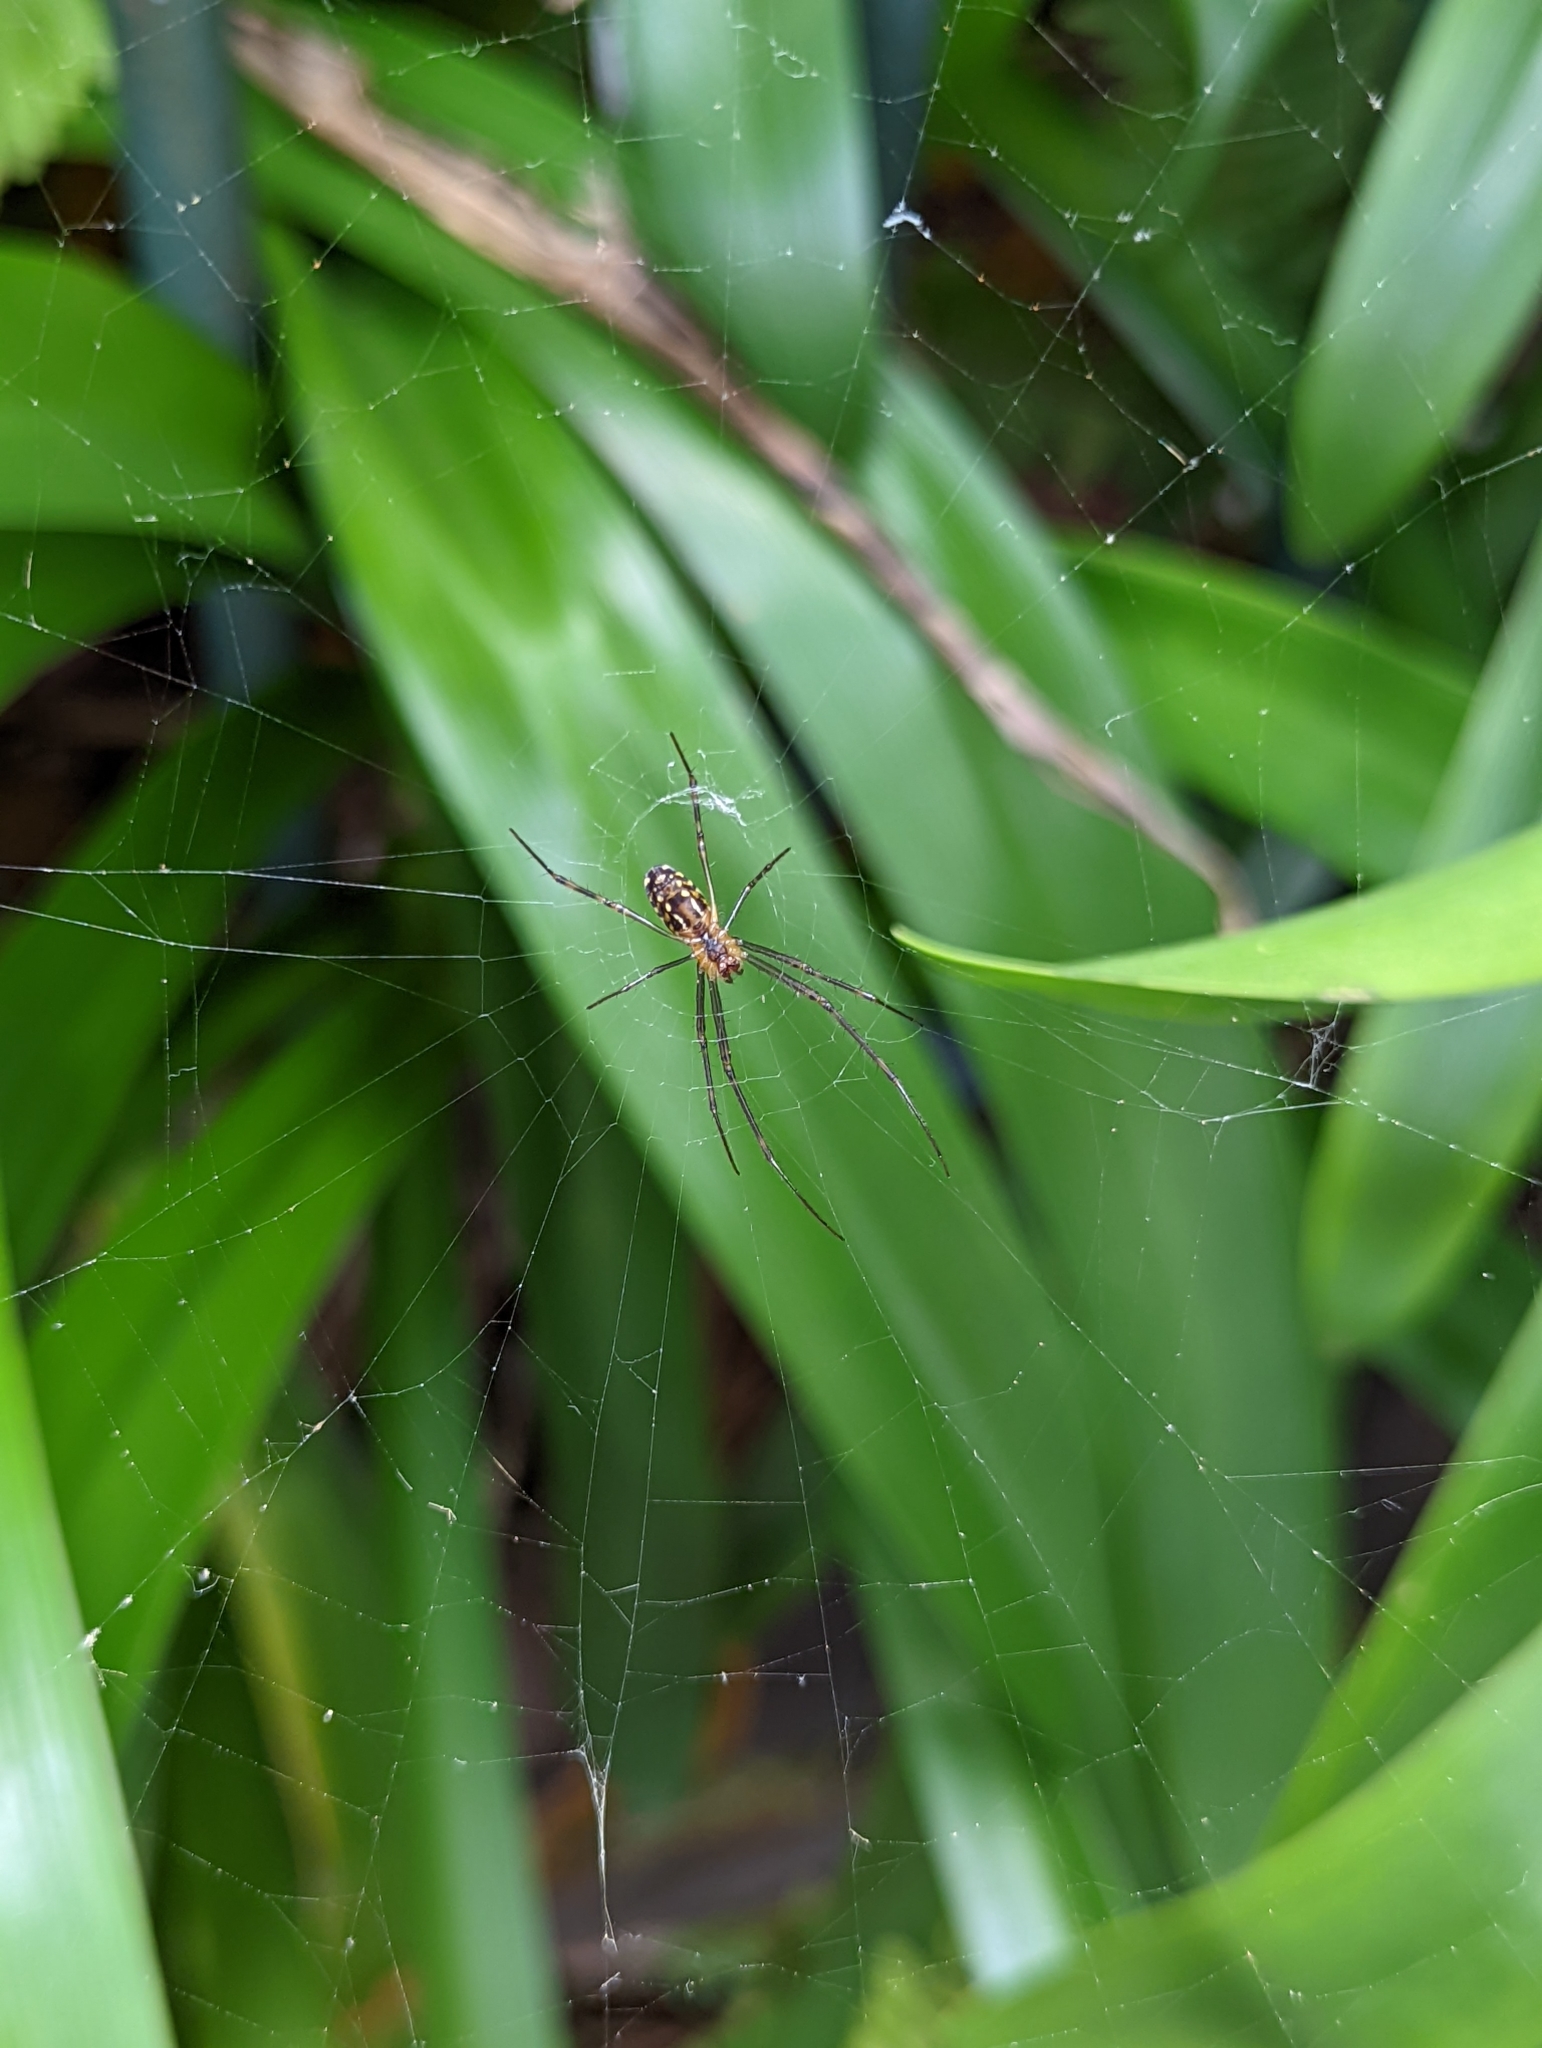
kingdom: Animalia
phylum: Arthropoda
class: Arachnida
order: Araneae
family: Tetragnathidae
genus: Leucauge
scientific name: Leucauge dromedaria
